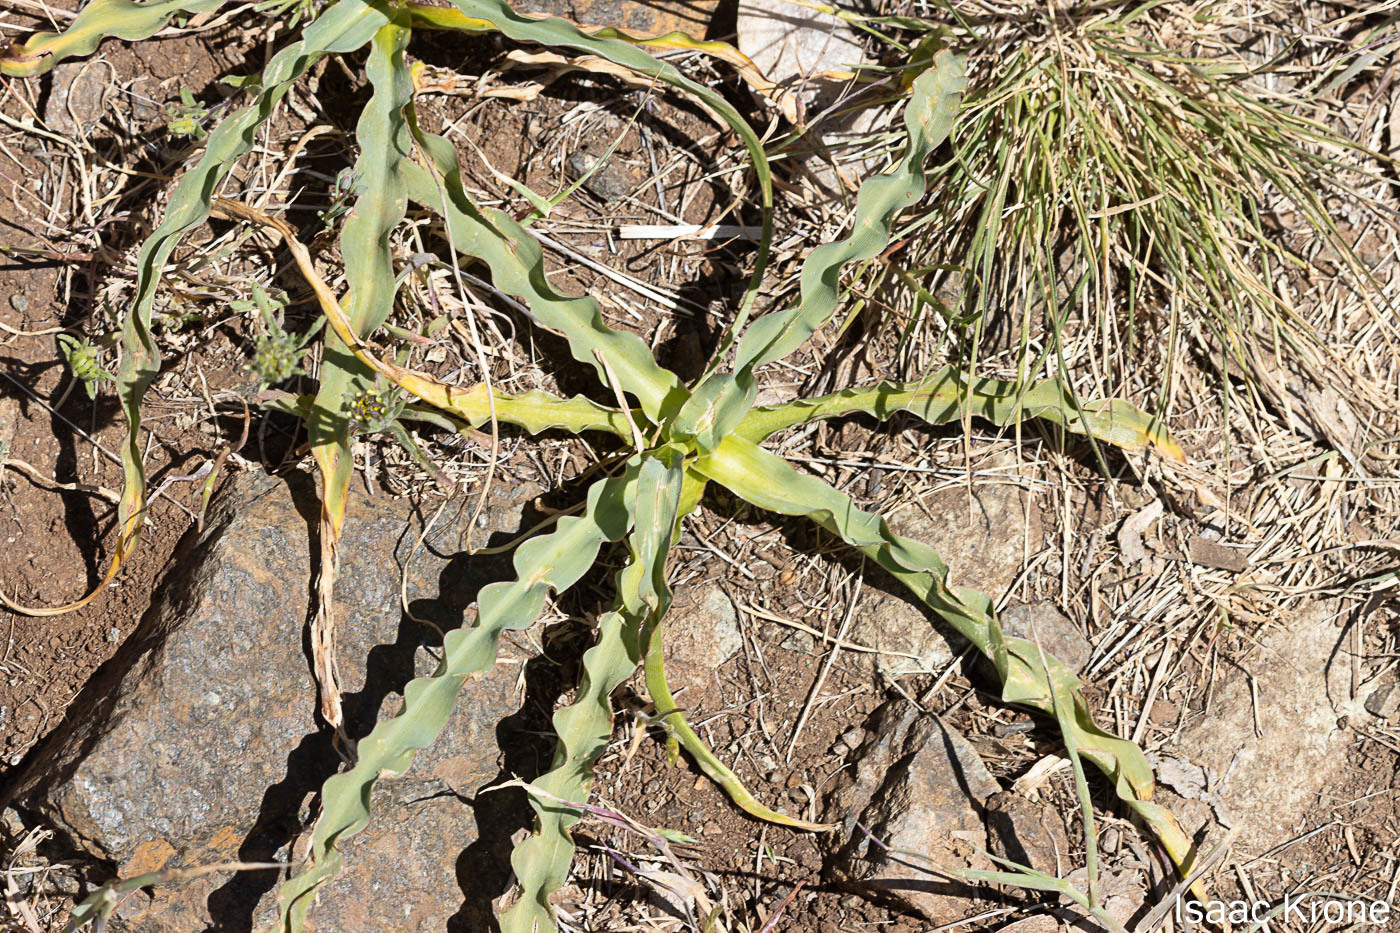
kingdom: Plantae
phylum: Tracheophyta
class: Liliopsida
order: Asparagales
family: Asparagaceae
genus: Chlorogalum
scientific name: Chlorogalum pomeridianum
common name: Amole
